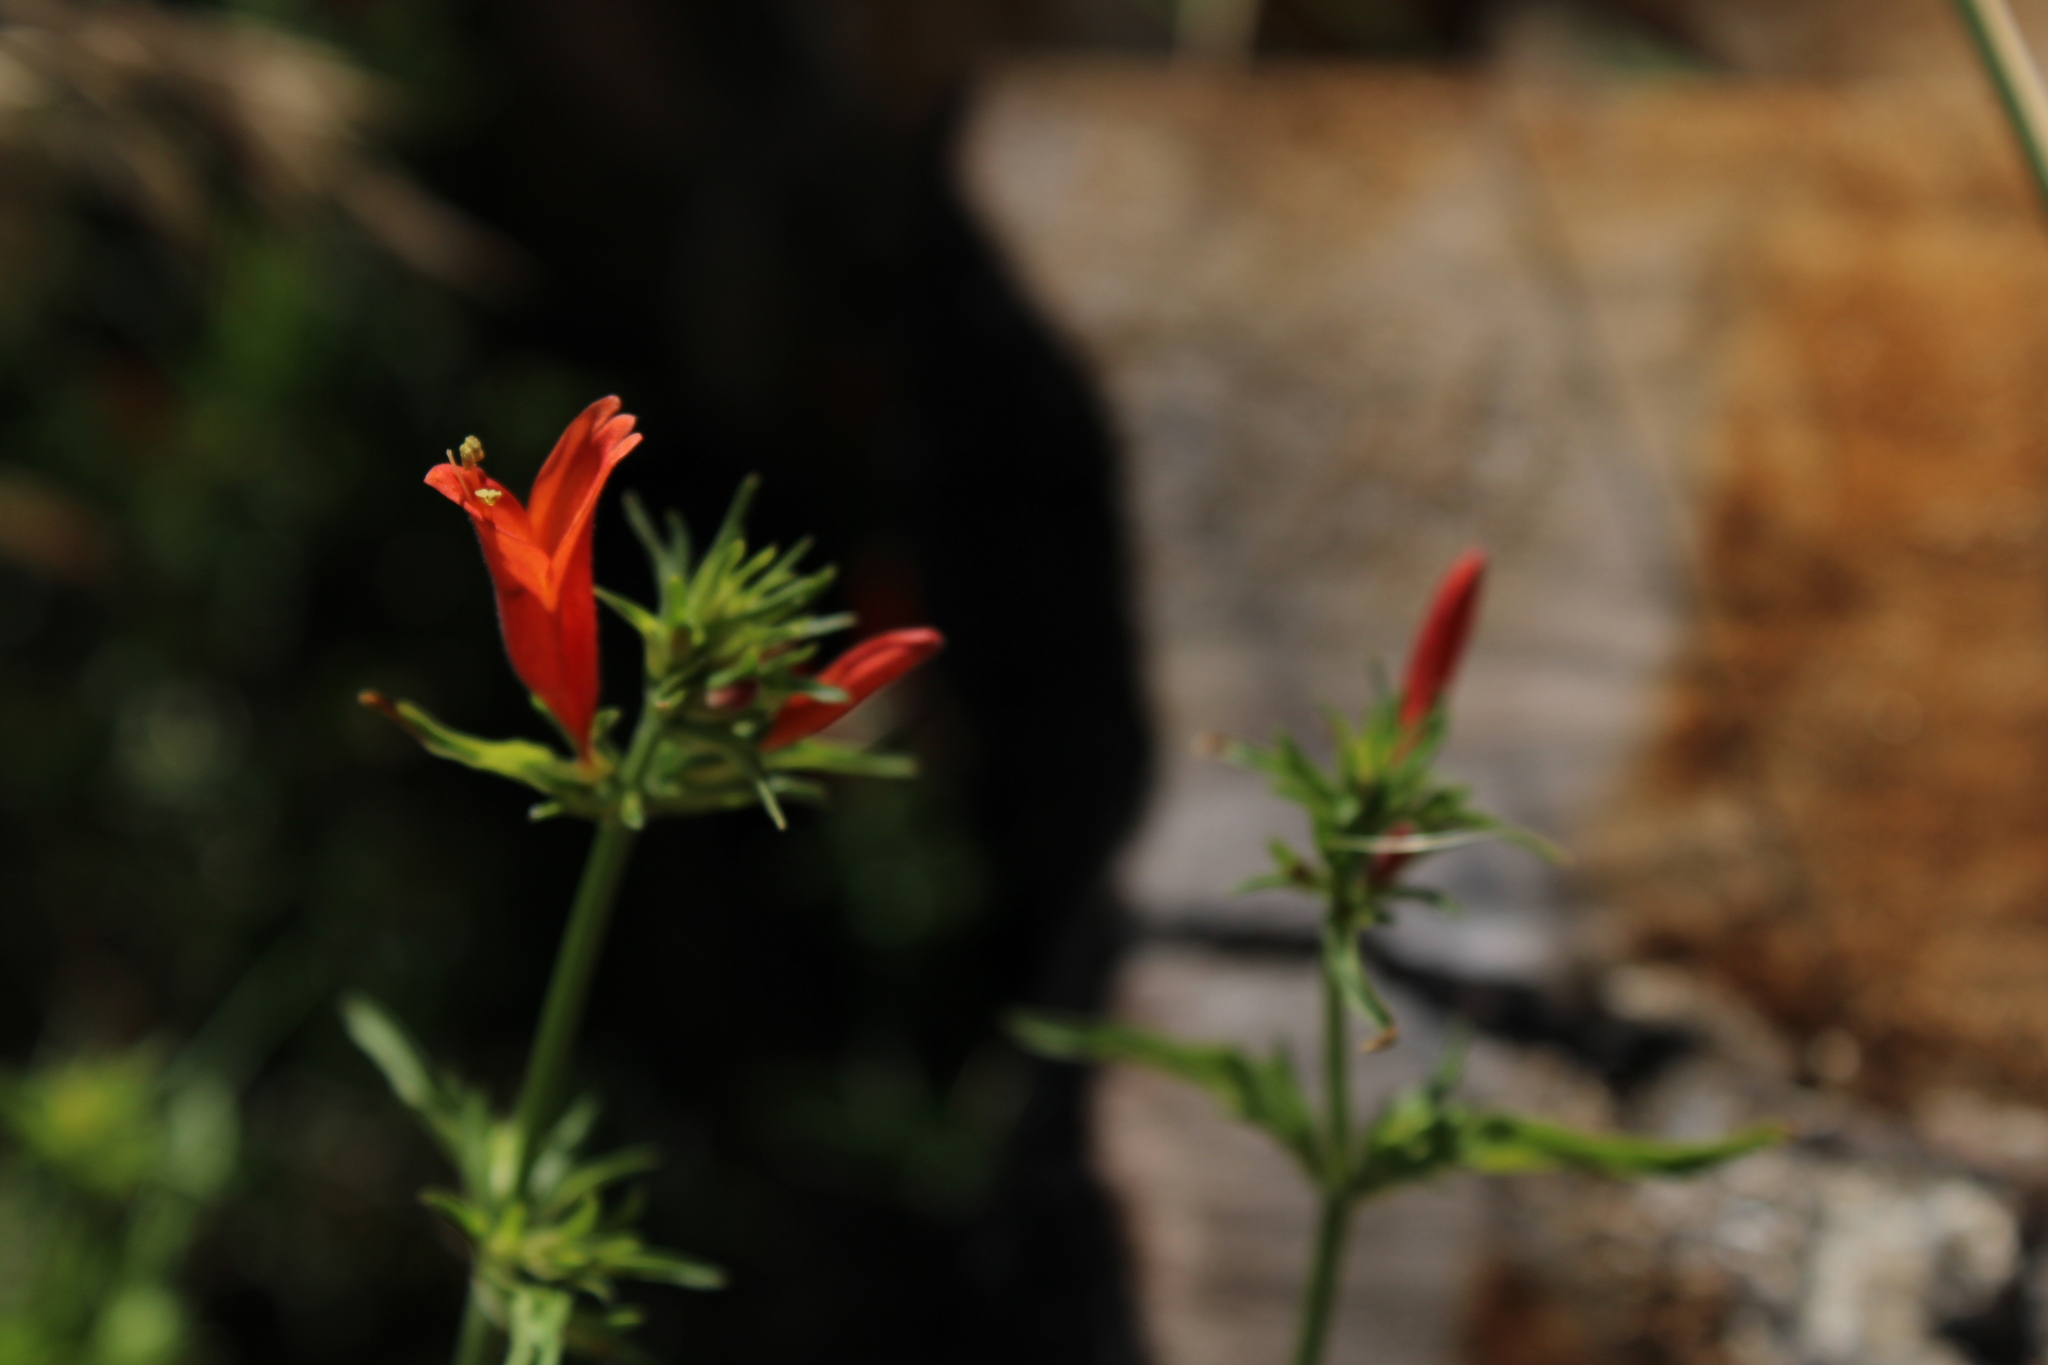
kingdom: Plantae
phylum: Tracheophyta
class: Magnoliopsida
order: Lamiales
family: Acanthaceae
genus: Dicliptera
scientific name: Dicliptera squarrosa
